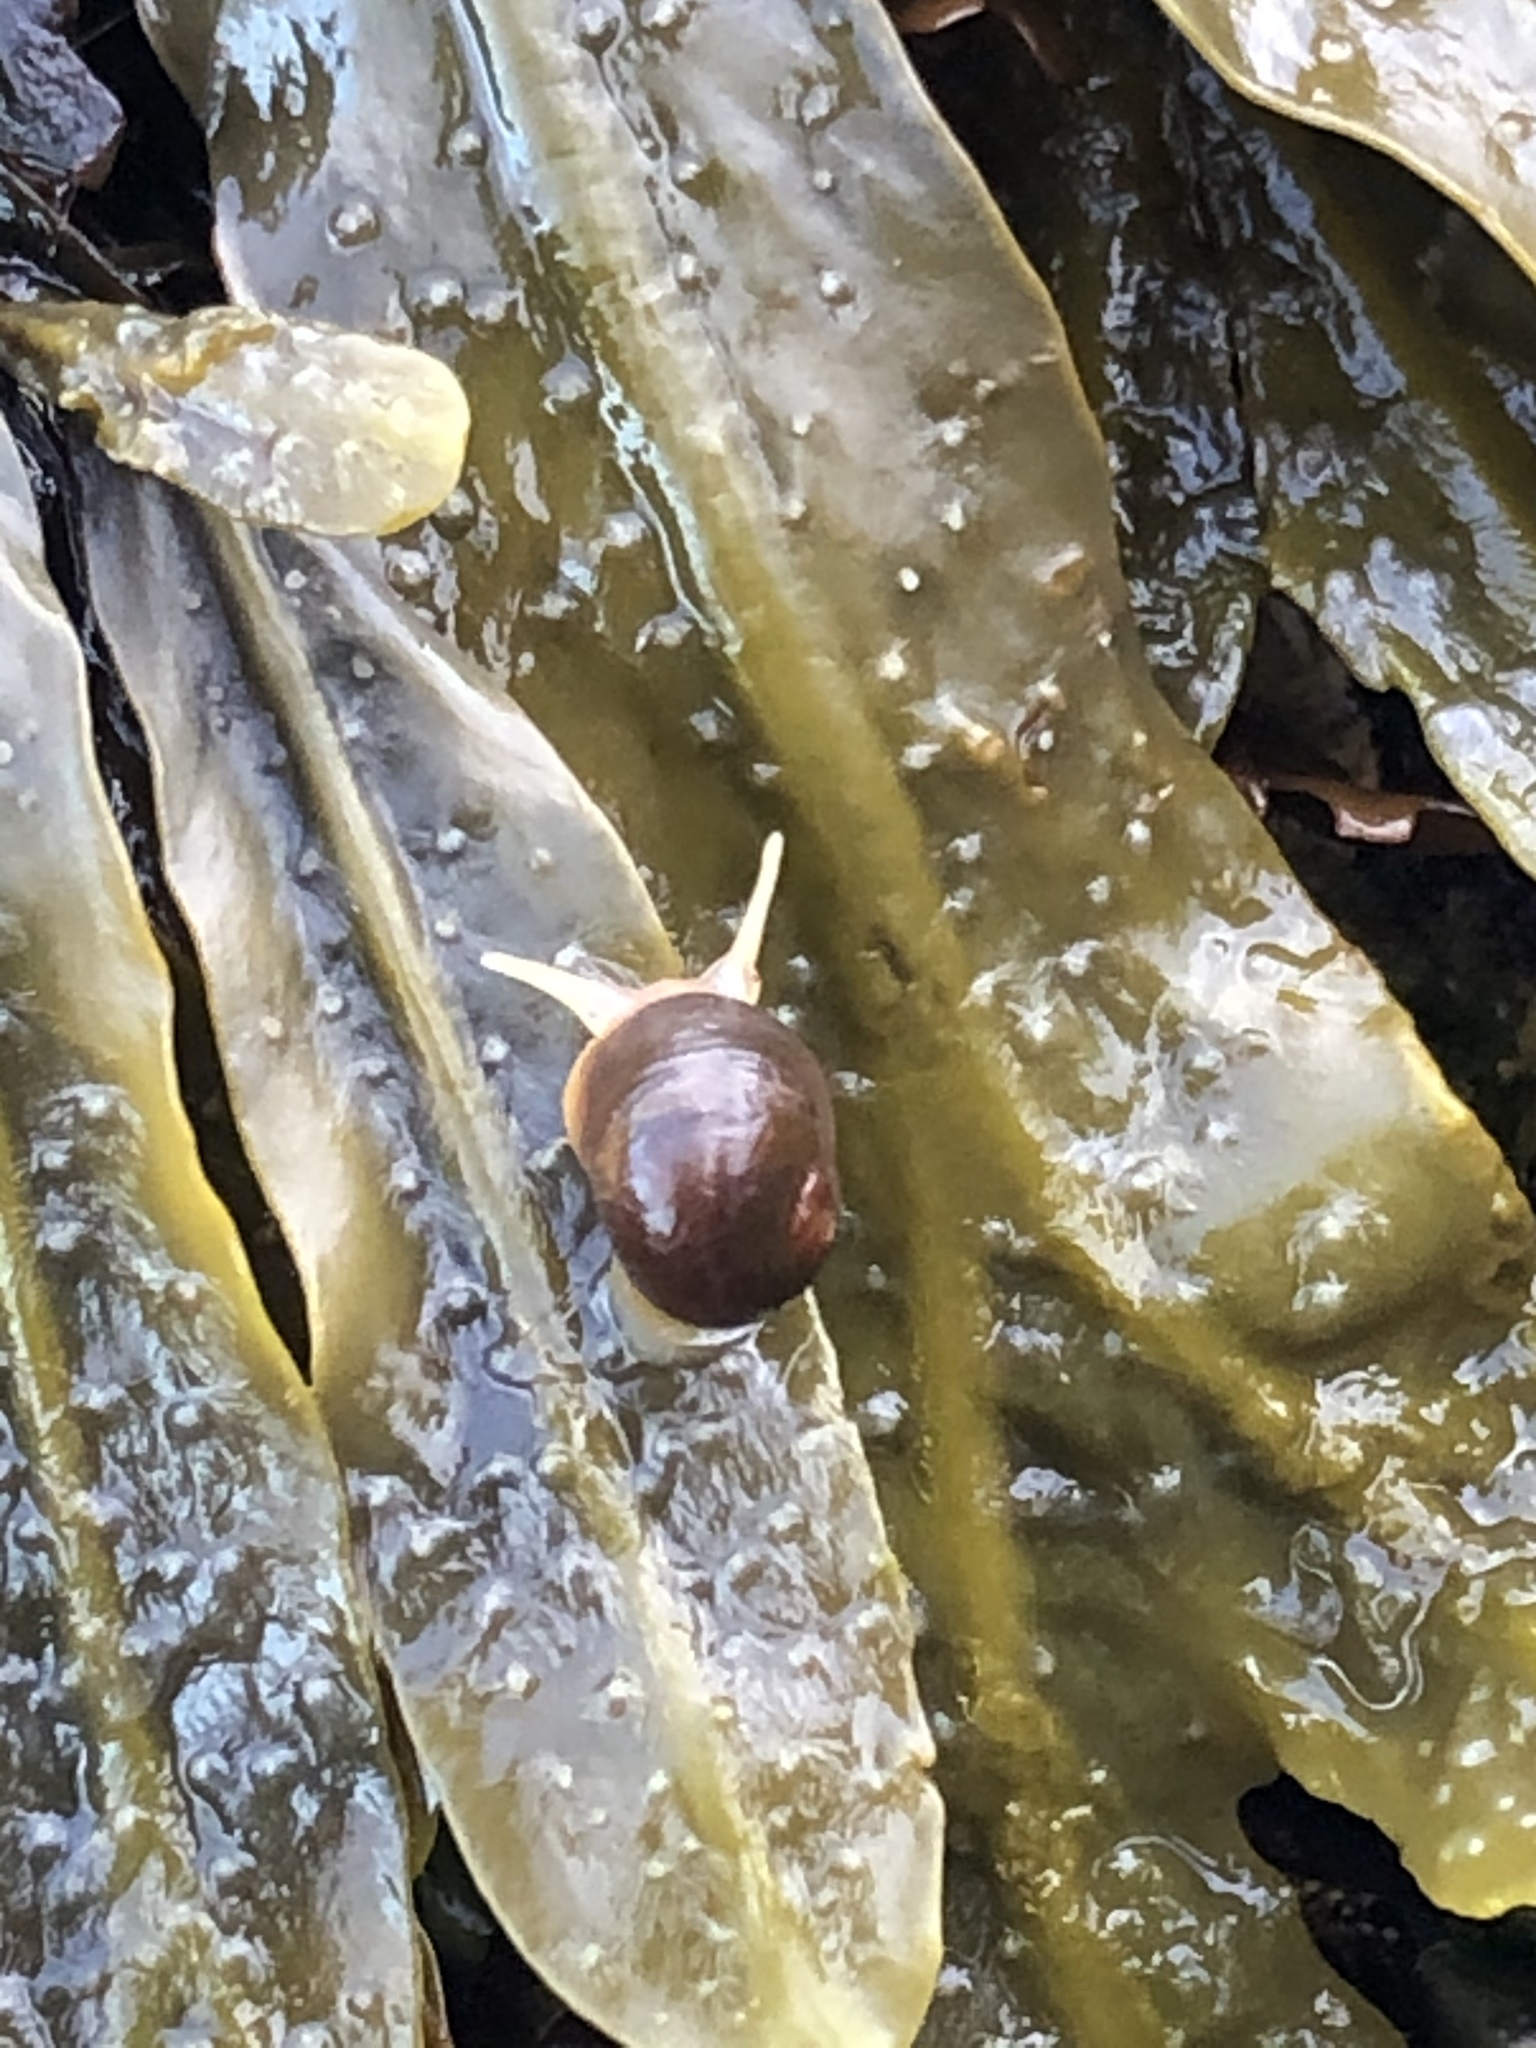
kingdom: Animalia
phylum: Mollusca
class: Gastropoda
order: Littorinimorpha
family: Littorinidae
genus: Littorina
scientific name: Littorina obtusata
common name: Flat periwinkle
